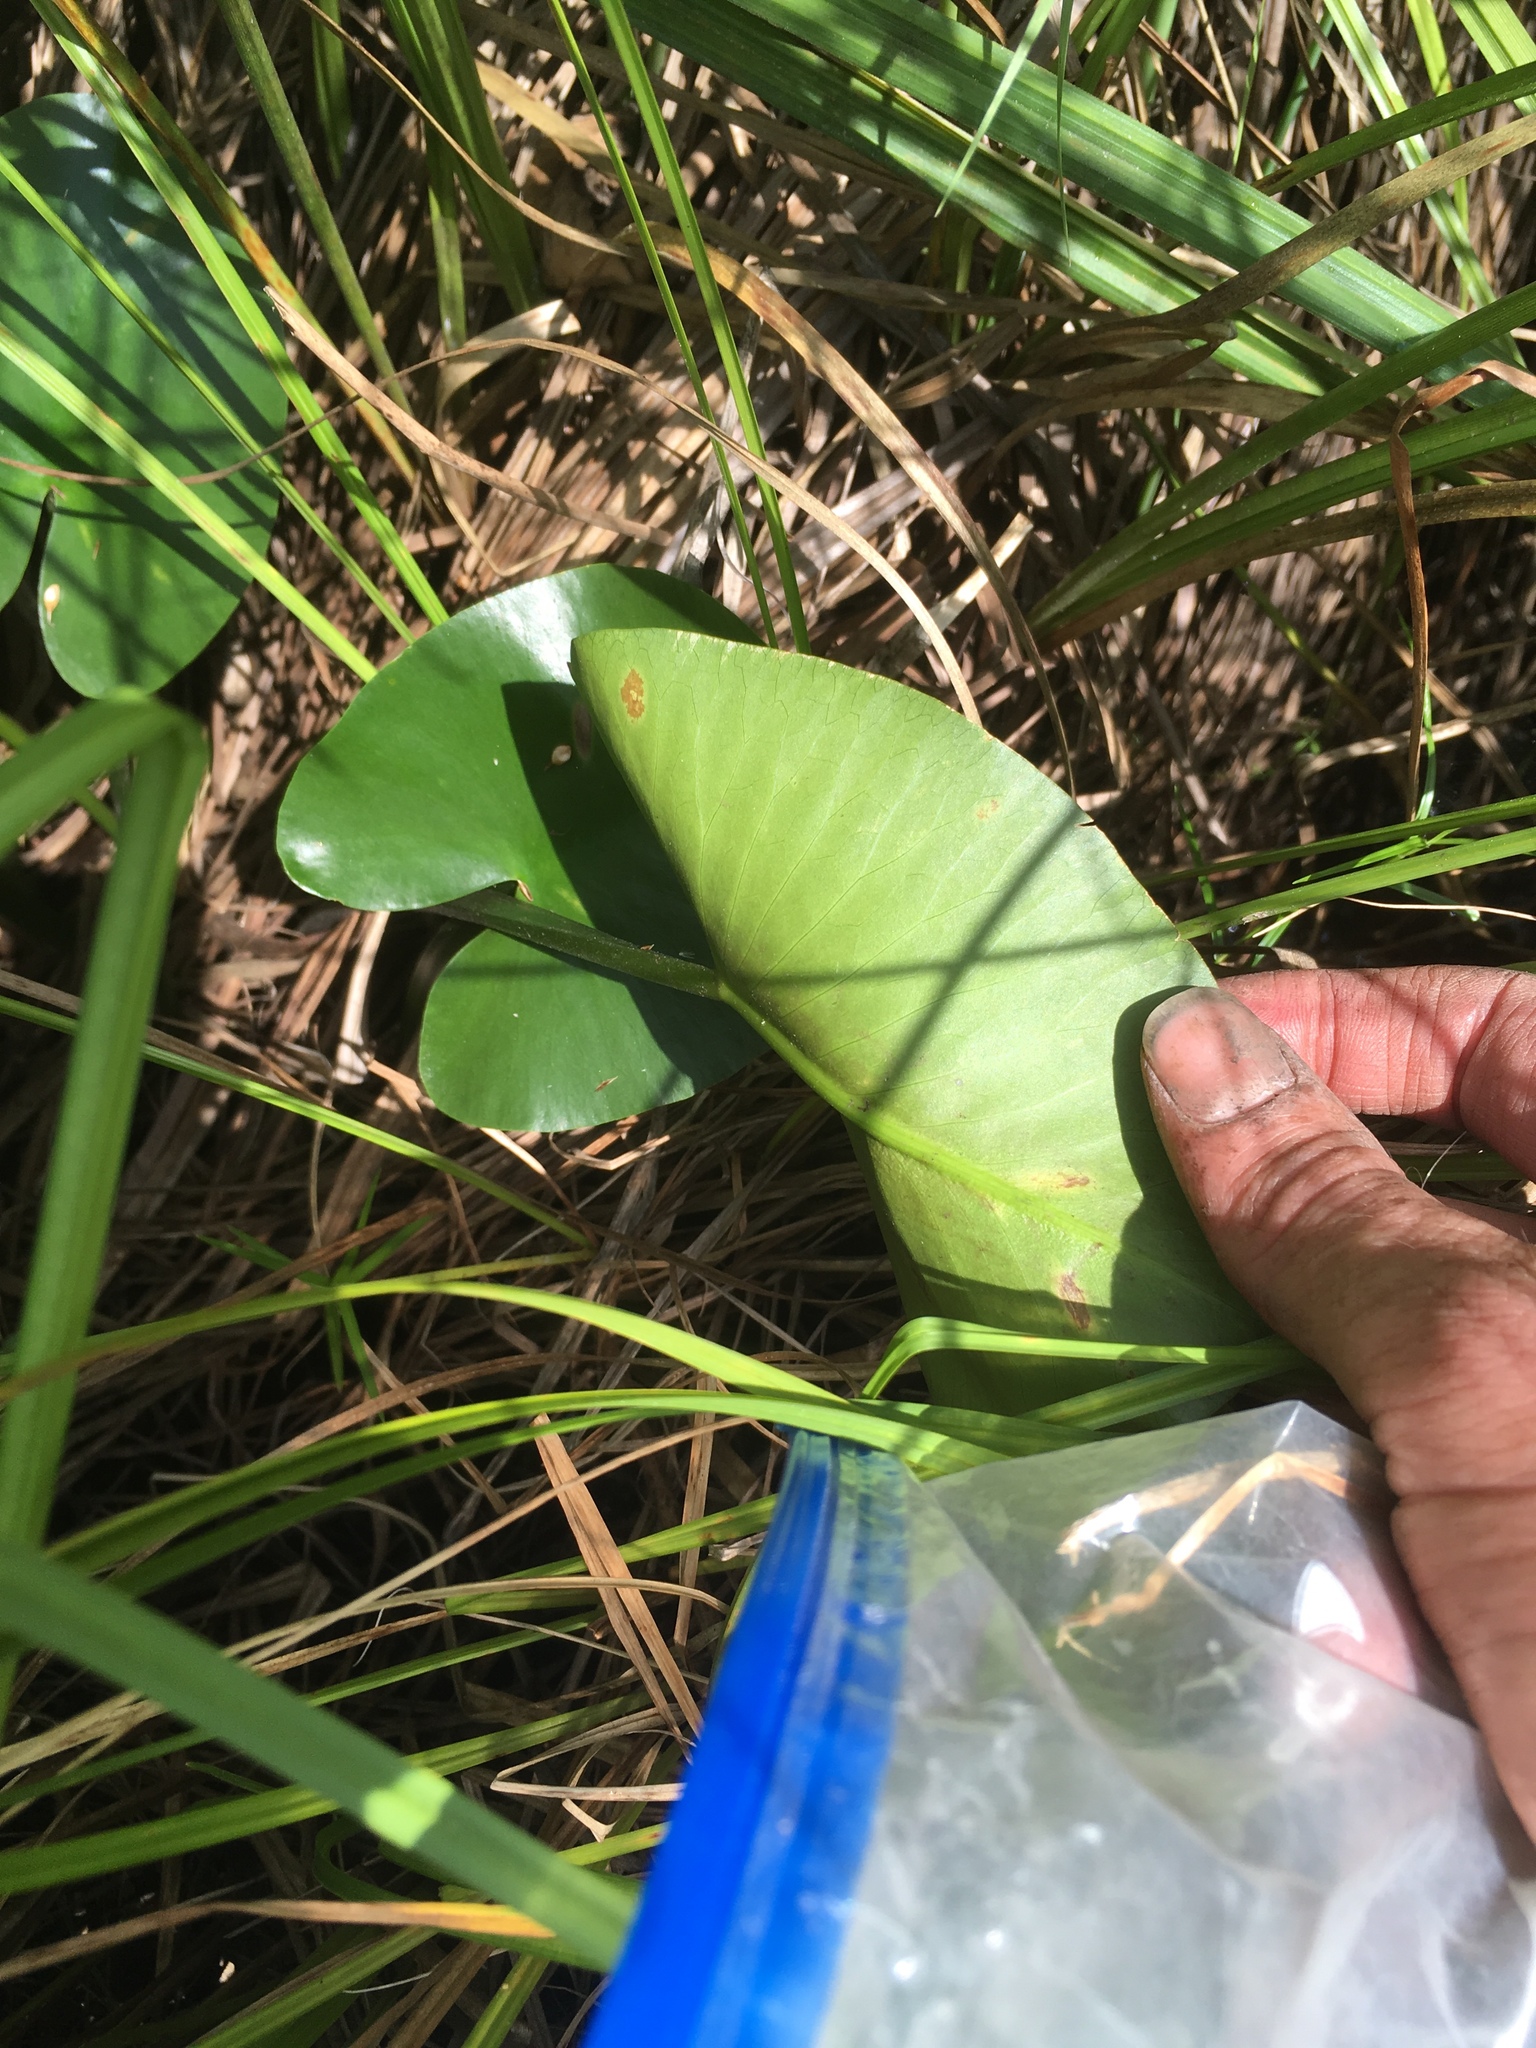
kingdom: Plantae
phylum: Tracheophyta
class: Magnoliopsida
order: Nymphaeales
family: Nymphaeaceae
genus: Nuphar
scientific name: Nuphar variegata
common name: Beaver-root
